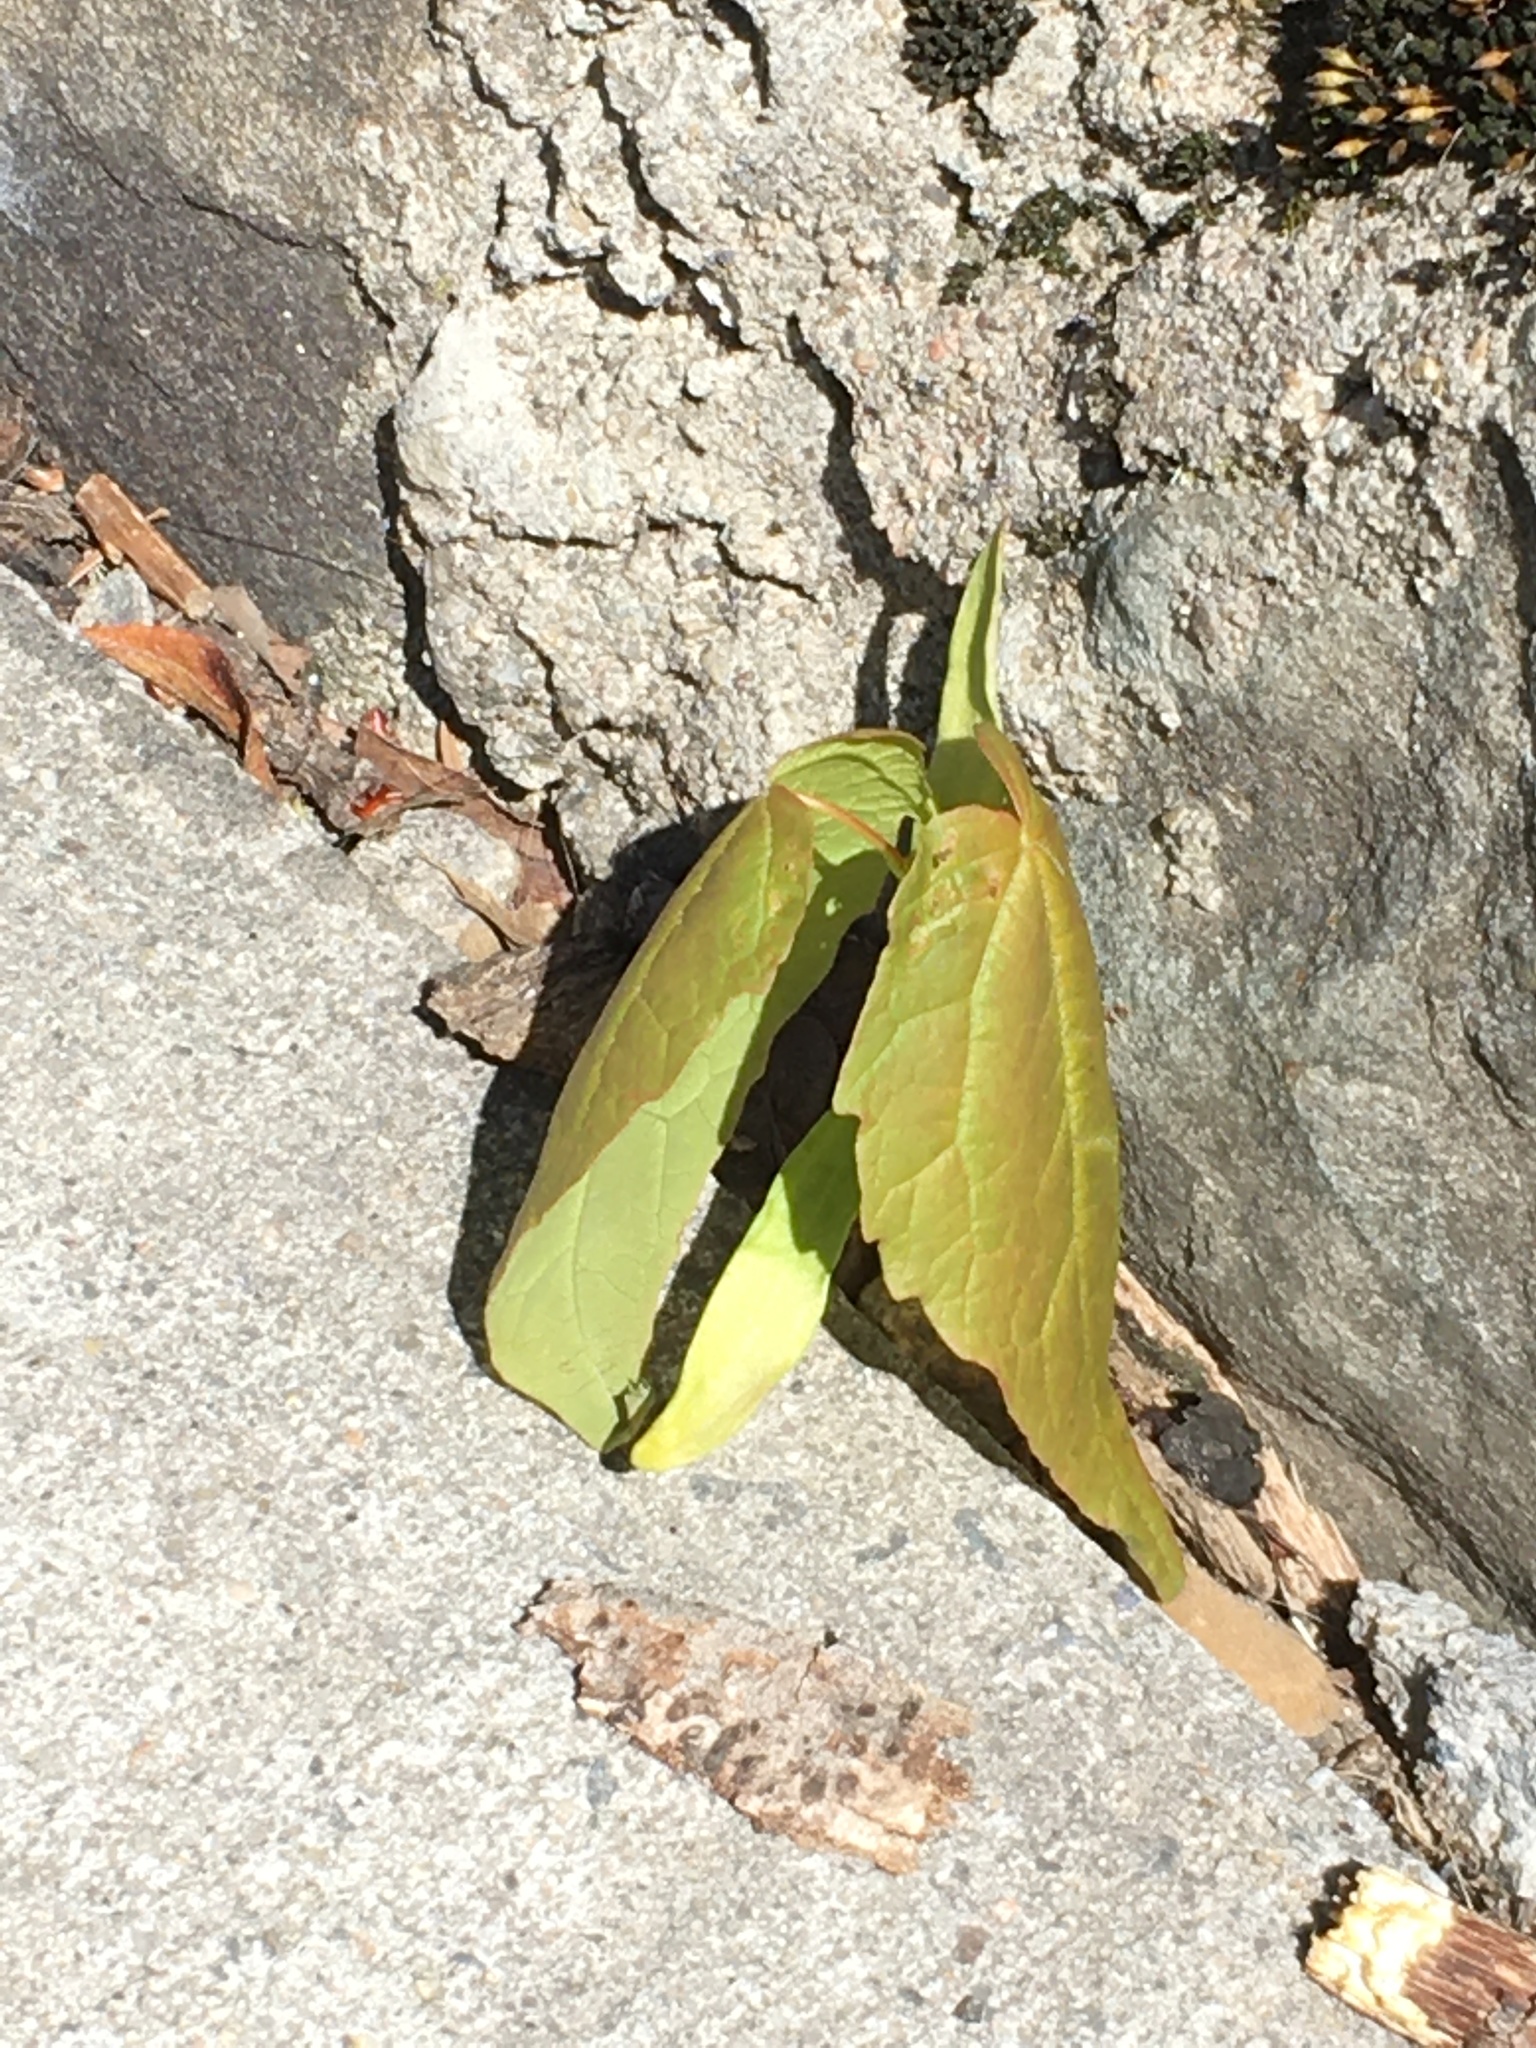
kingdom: Plantae
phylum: Tracheophyta
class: Magnoliopsida
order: Sapindales
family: Sapindaceae
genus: Acer
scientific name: Acer rubrum
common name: Red maple
